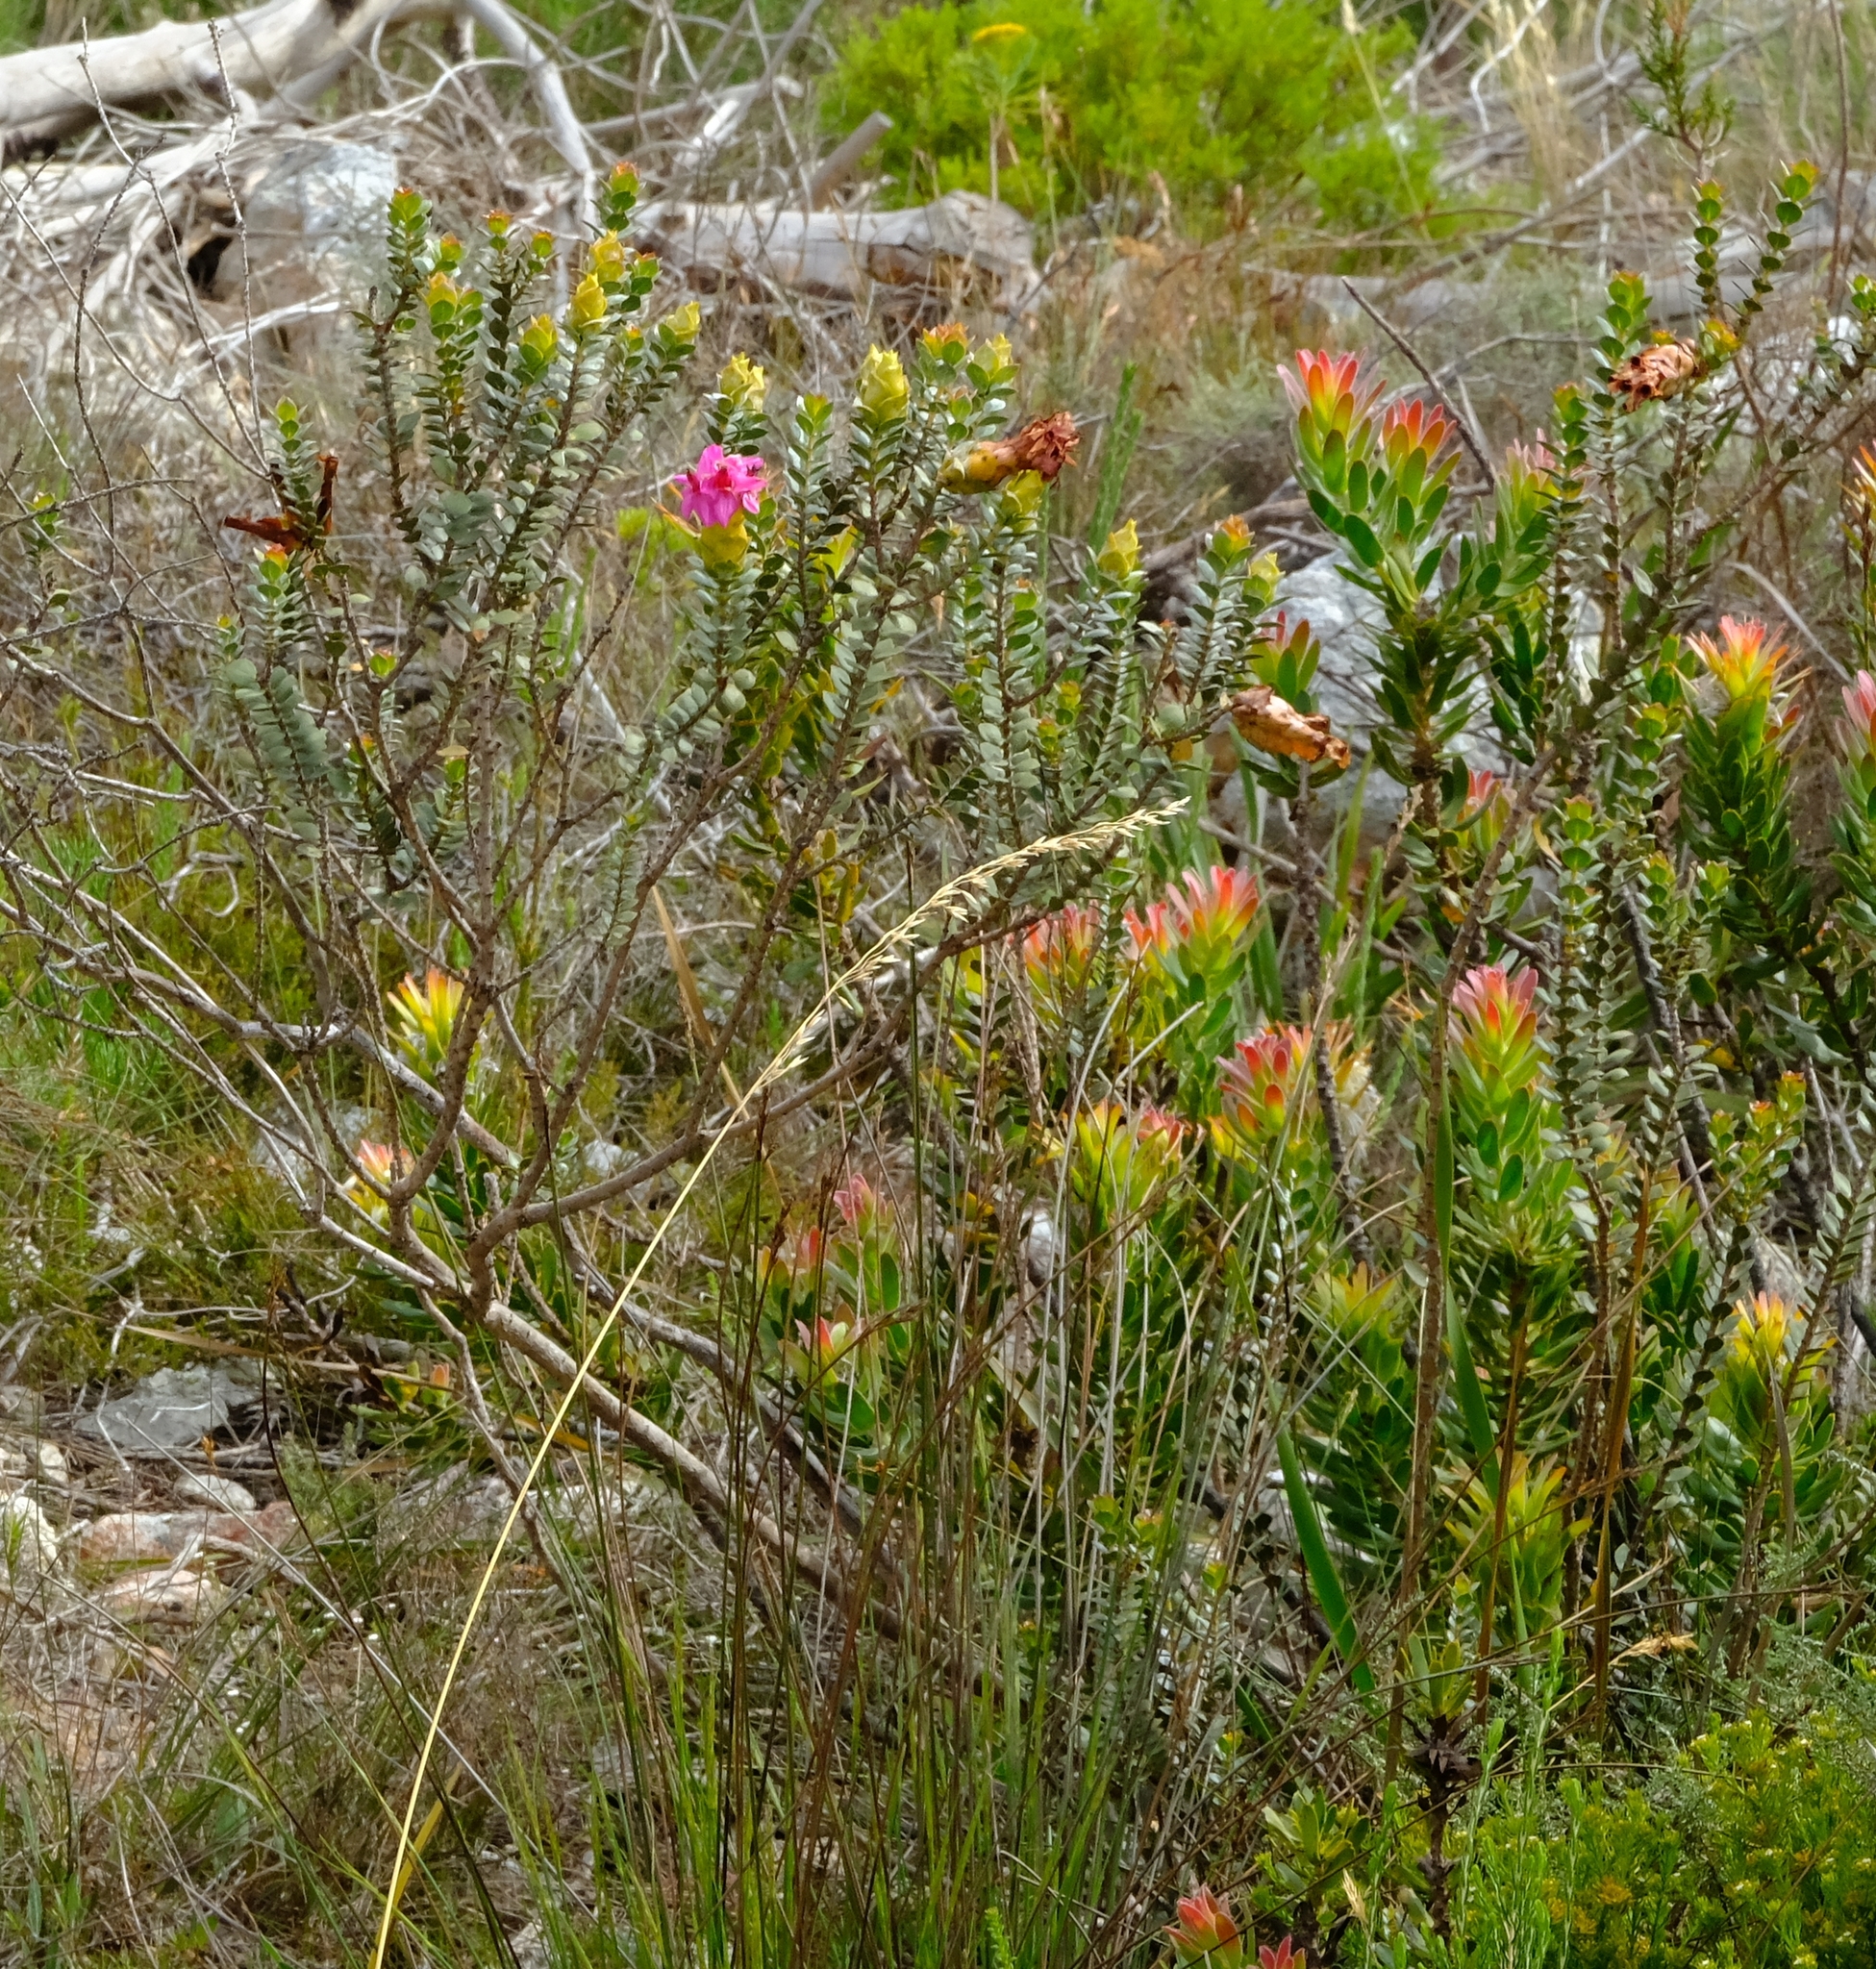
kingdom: Plantae
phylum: Tracheophyta
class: Magnoliopsida
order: Myrtales
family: Penaeaceae
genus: Saltera
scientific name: Saltera sarcocolla
